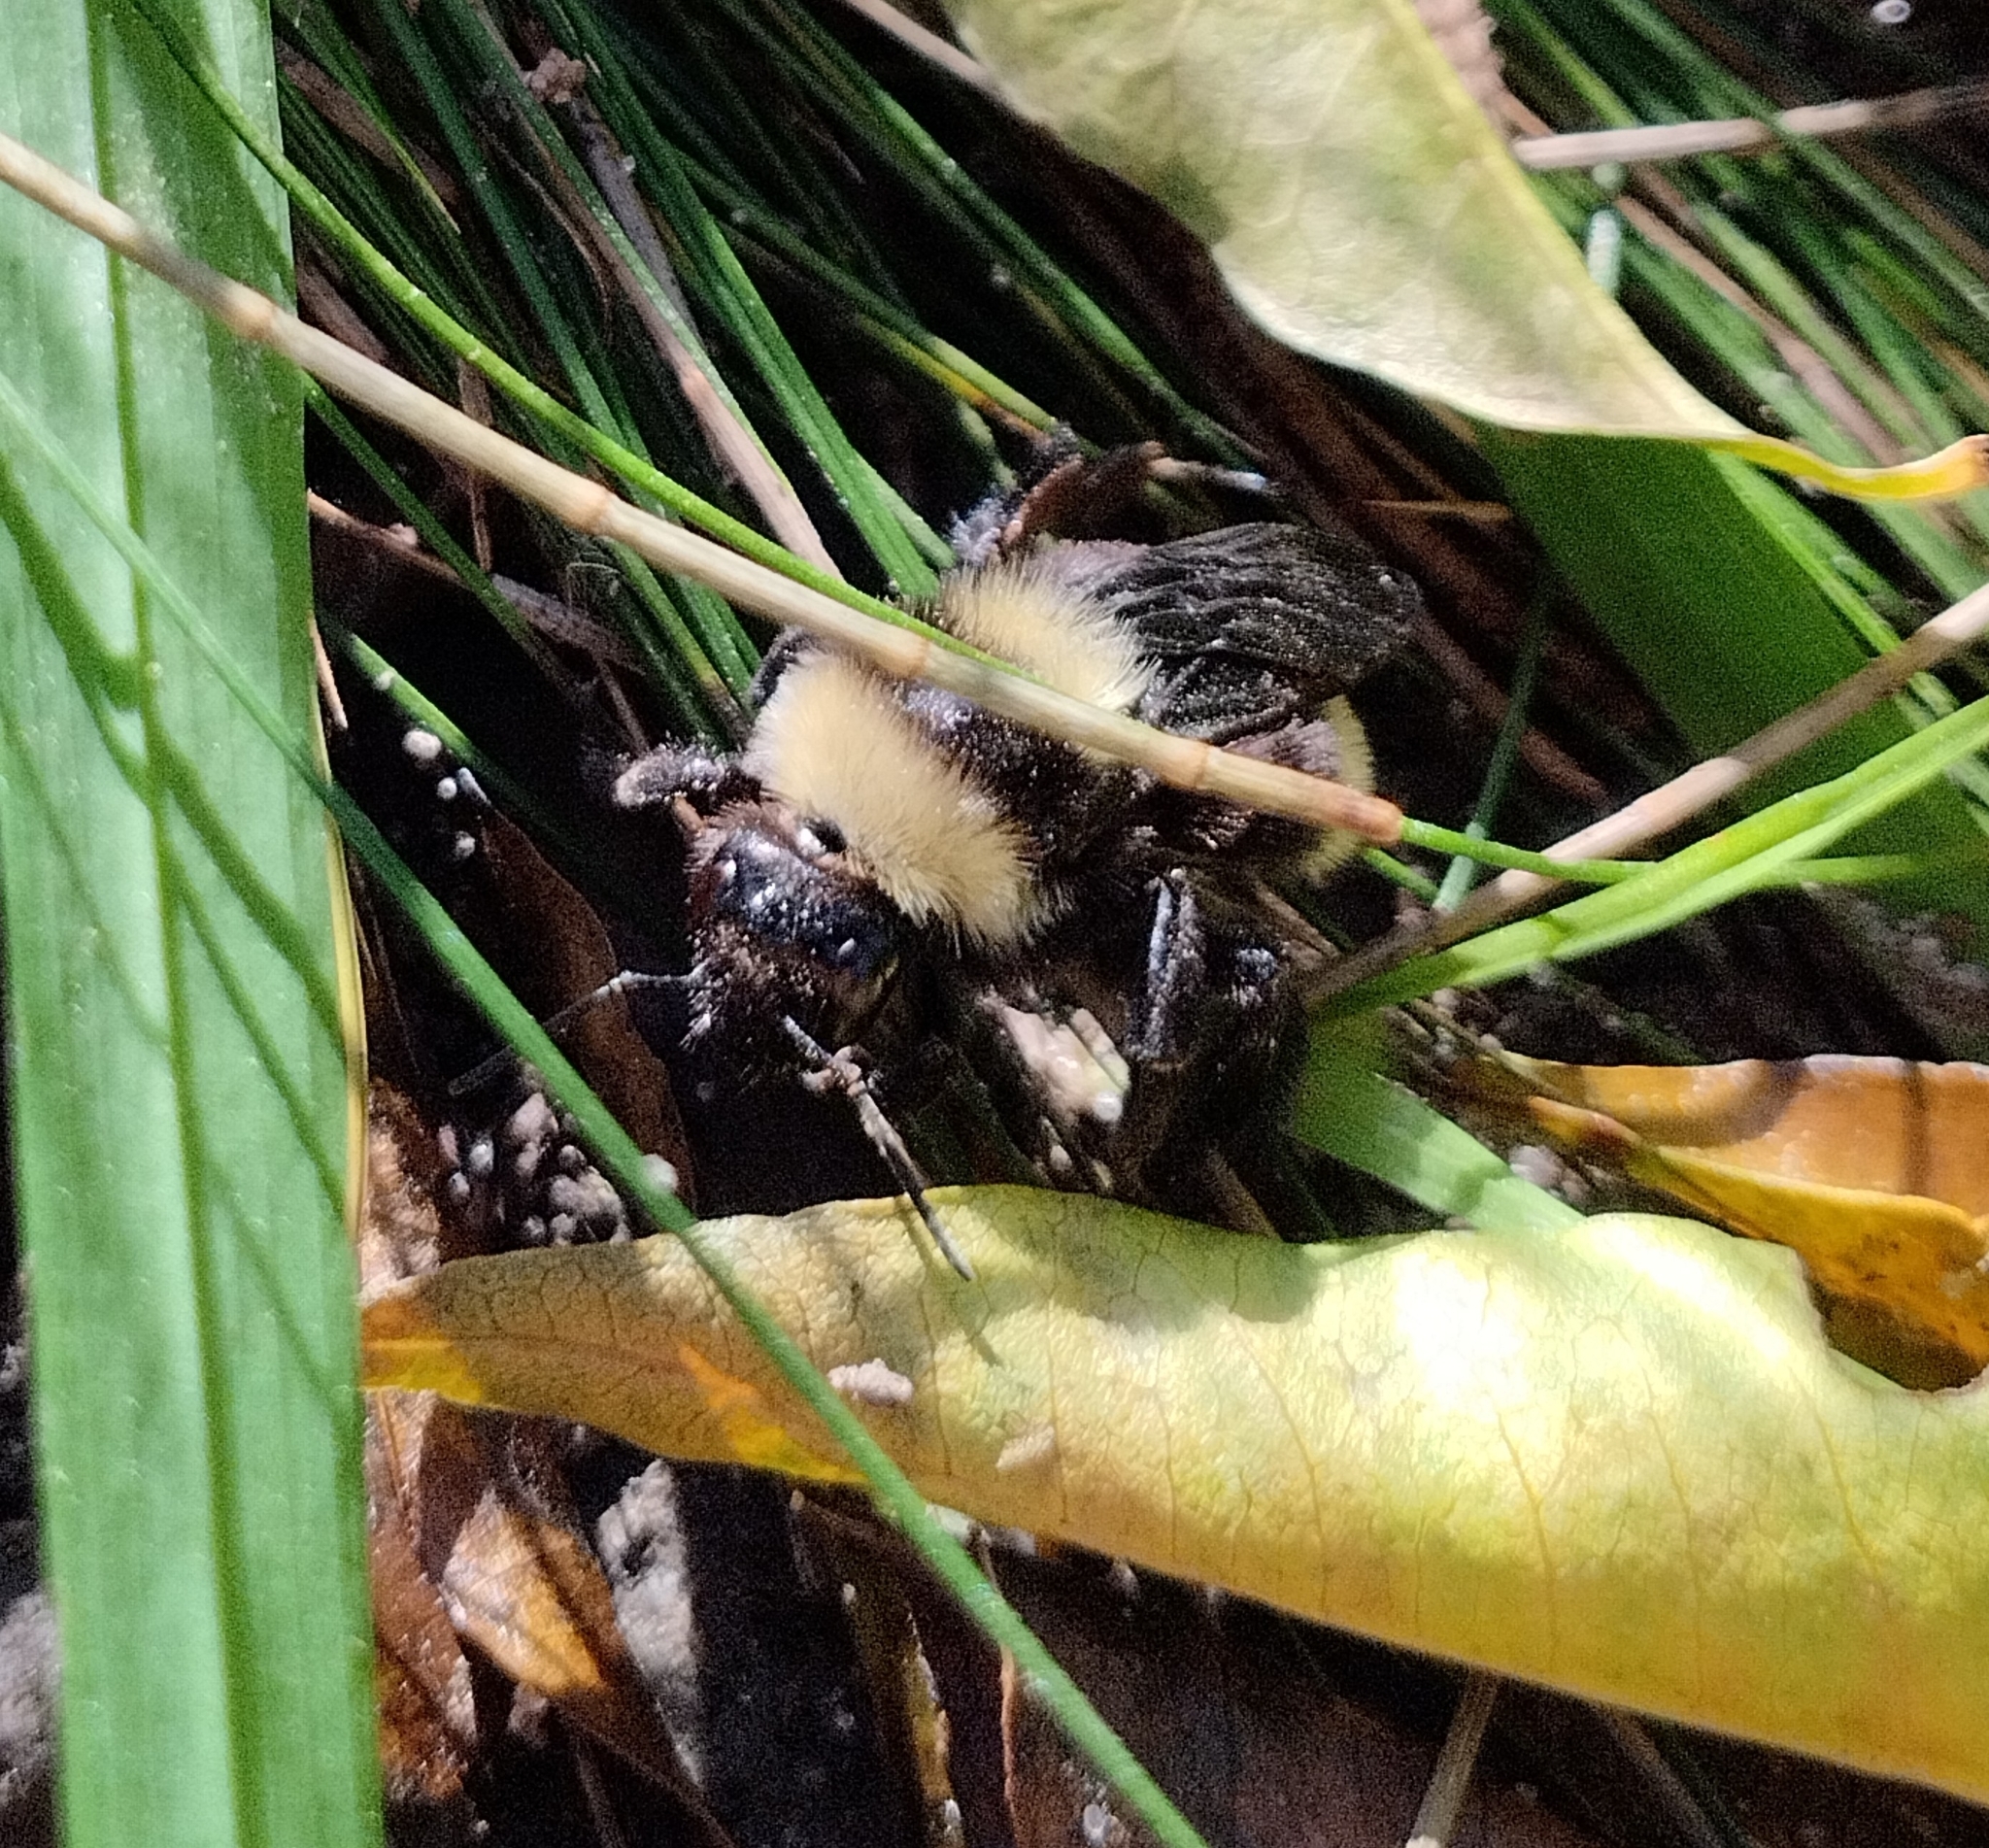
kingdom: Animalia
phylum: Arthropoda
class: Insecta
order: Hymenoptera
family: Apidae
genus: Bombus
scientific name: Bombus pauloensis
